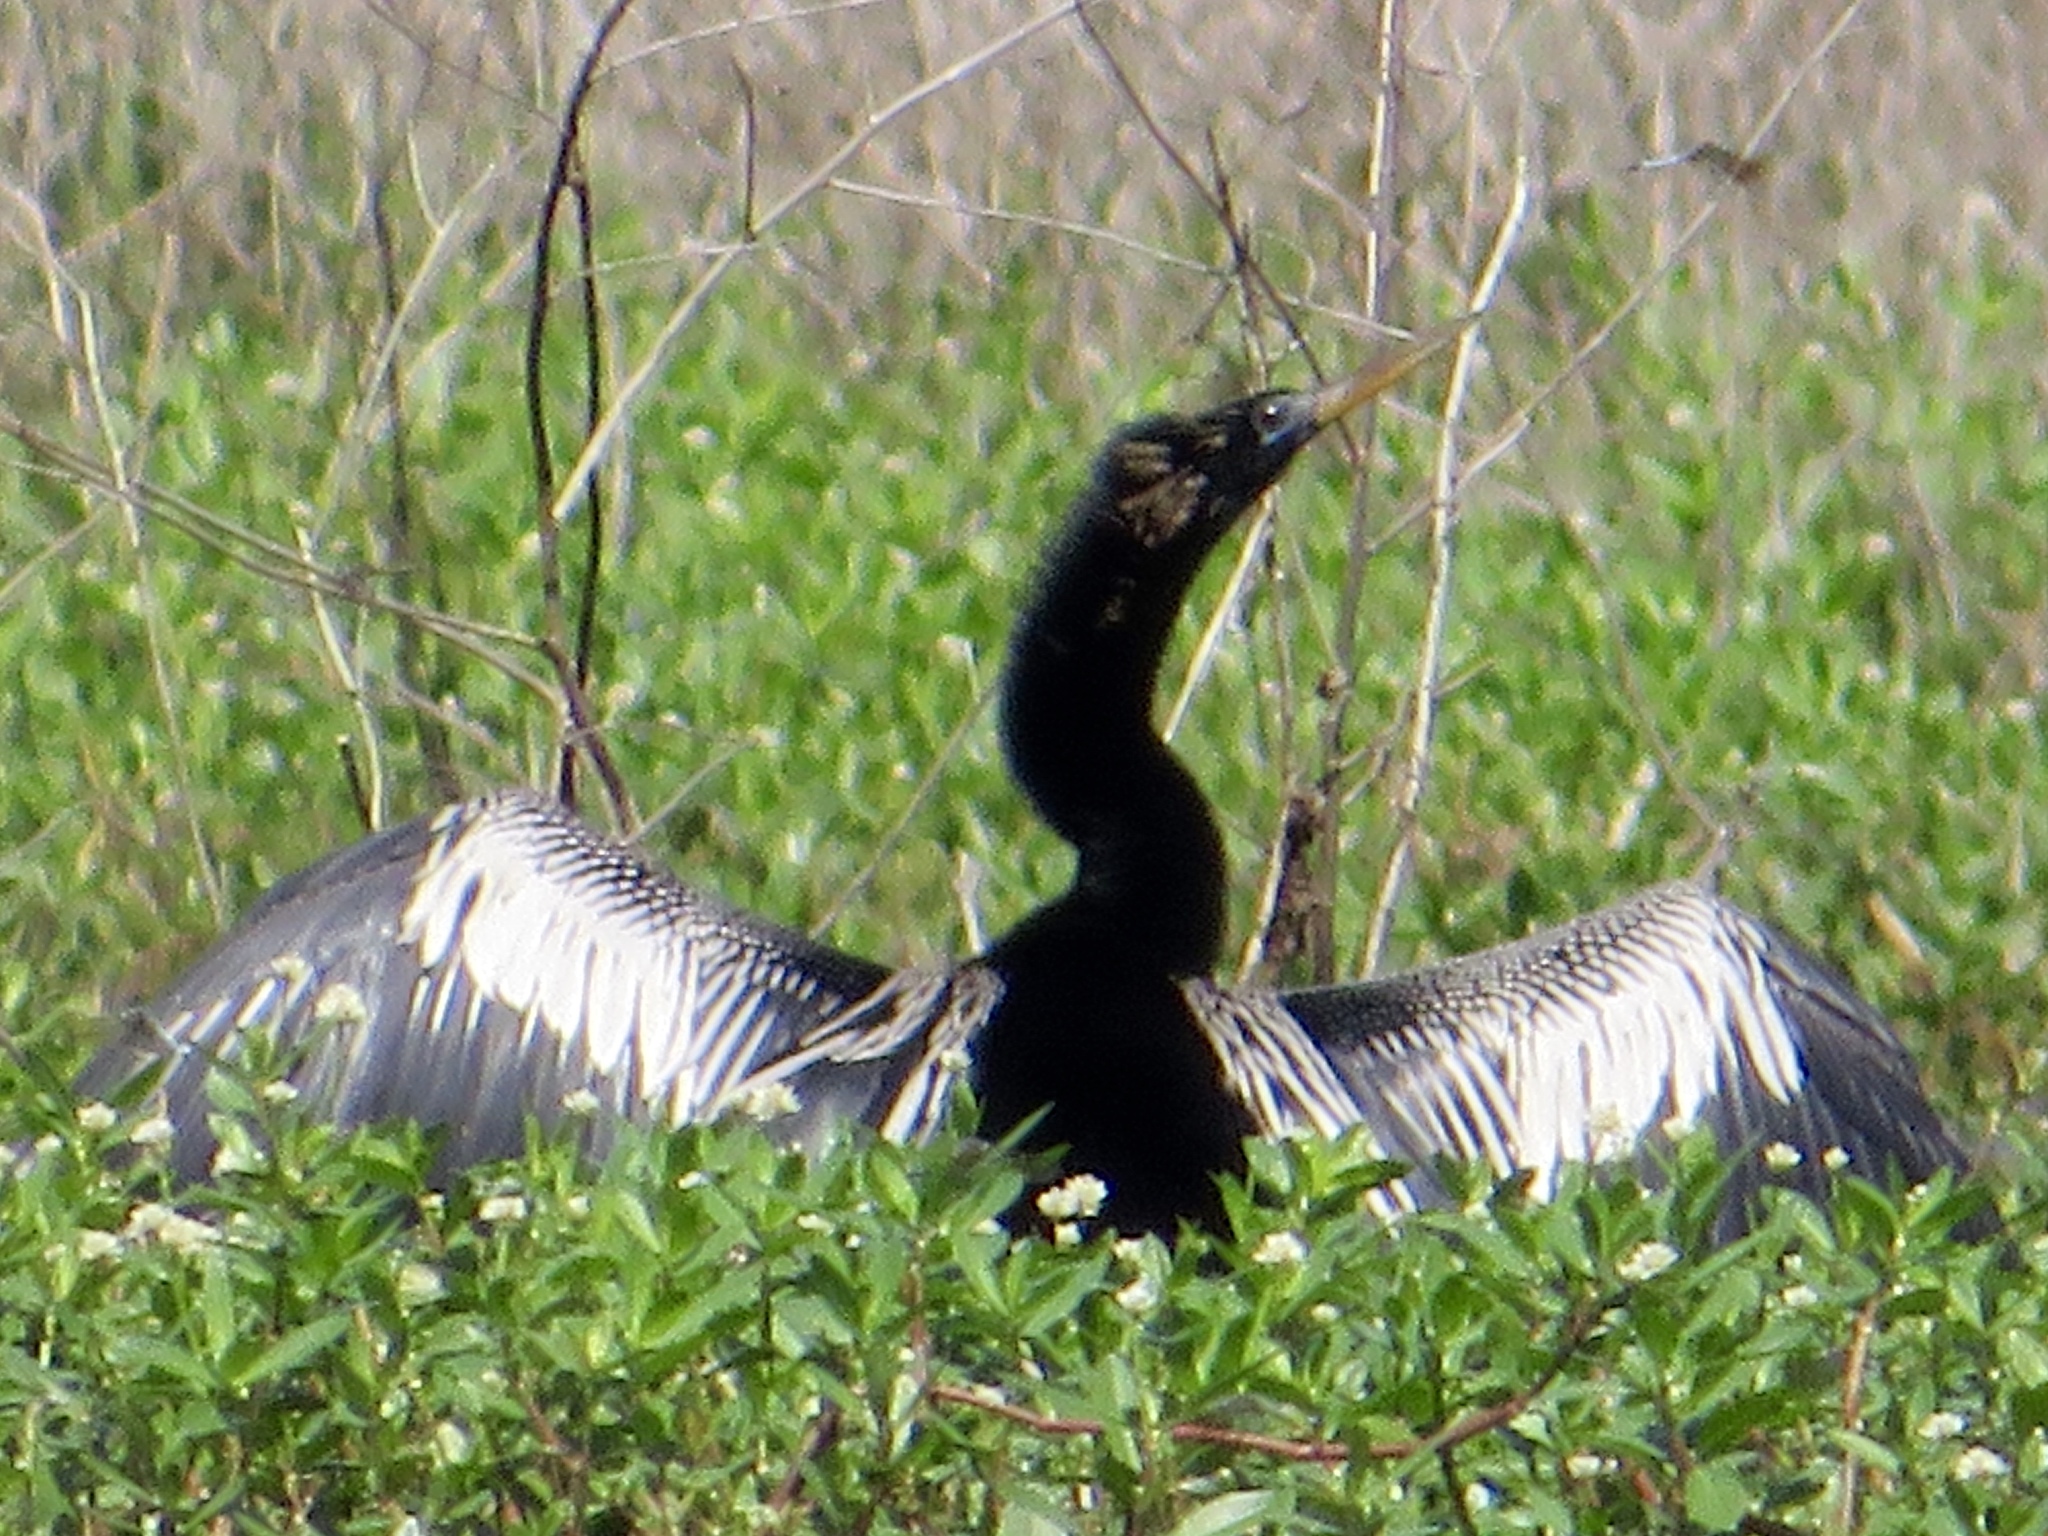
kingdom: Animalia
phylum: Chordata
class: Aves
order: Suliformes
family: Anhingidae
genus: Anhinga
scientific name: Anhinga anhinga
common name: Anhinga
